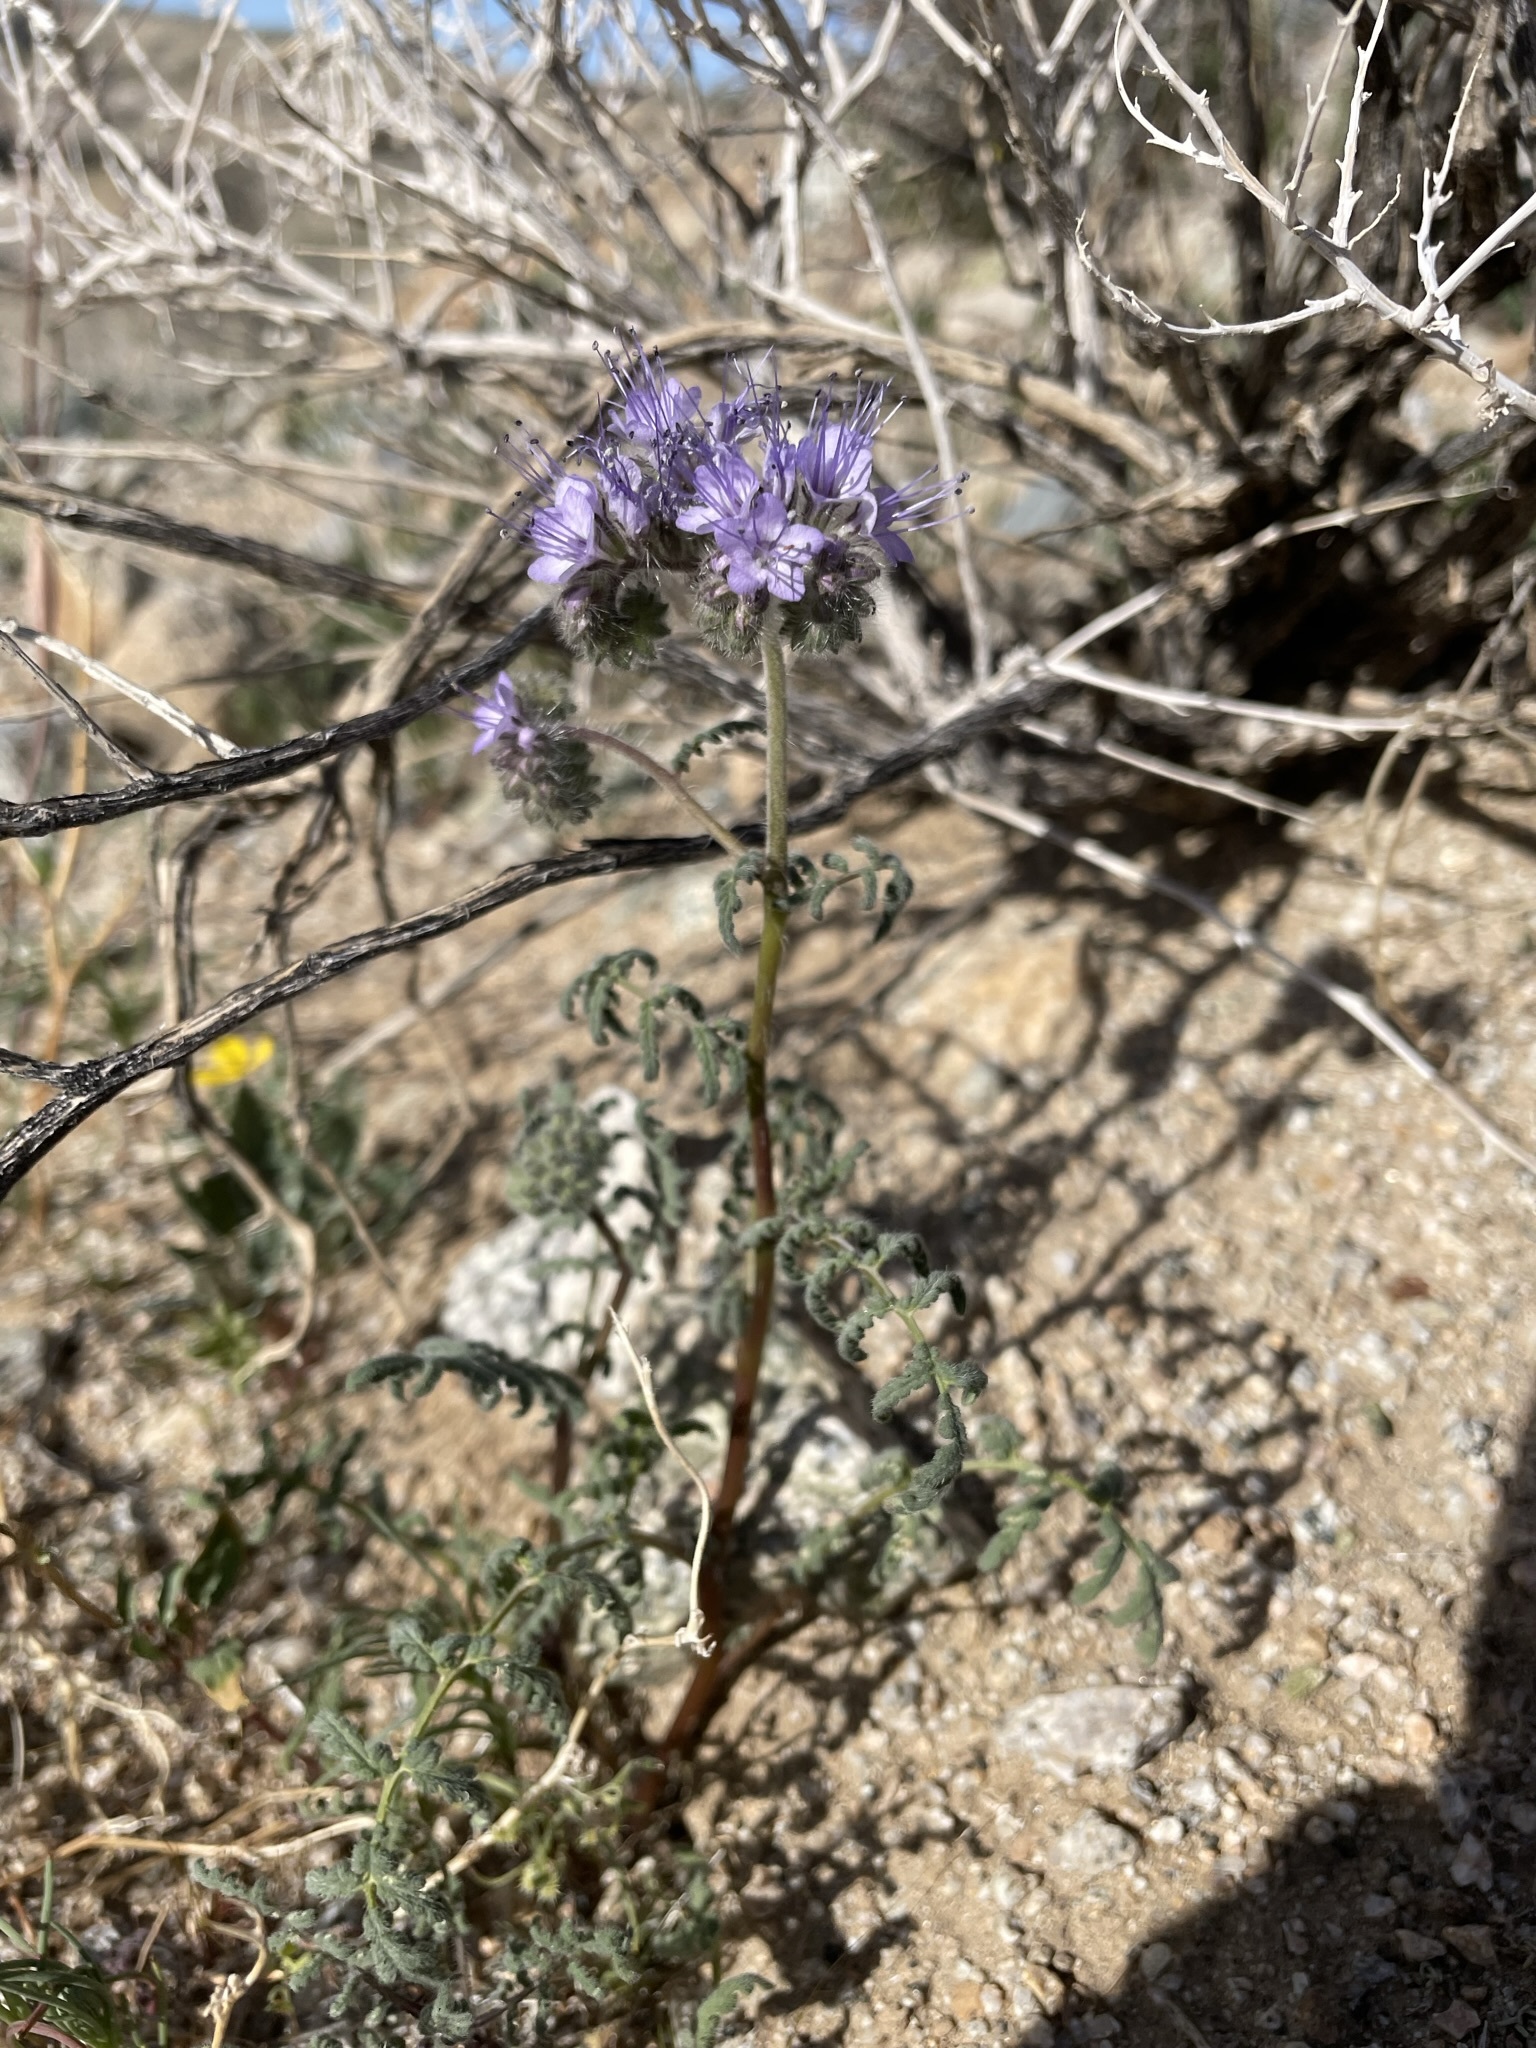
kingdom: Plantae
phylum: Tracheophyta
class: Magnoliopsida
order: Boraginales
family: Hydrophyllaceae
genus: Phacelia
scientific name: Phacelia tanacetifolia
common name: Phacelia
